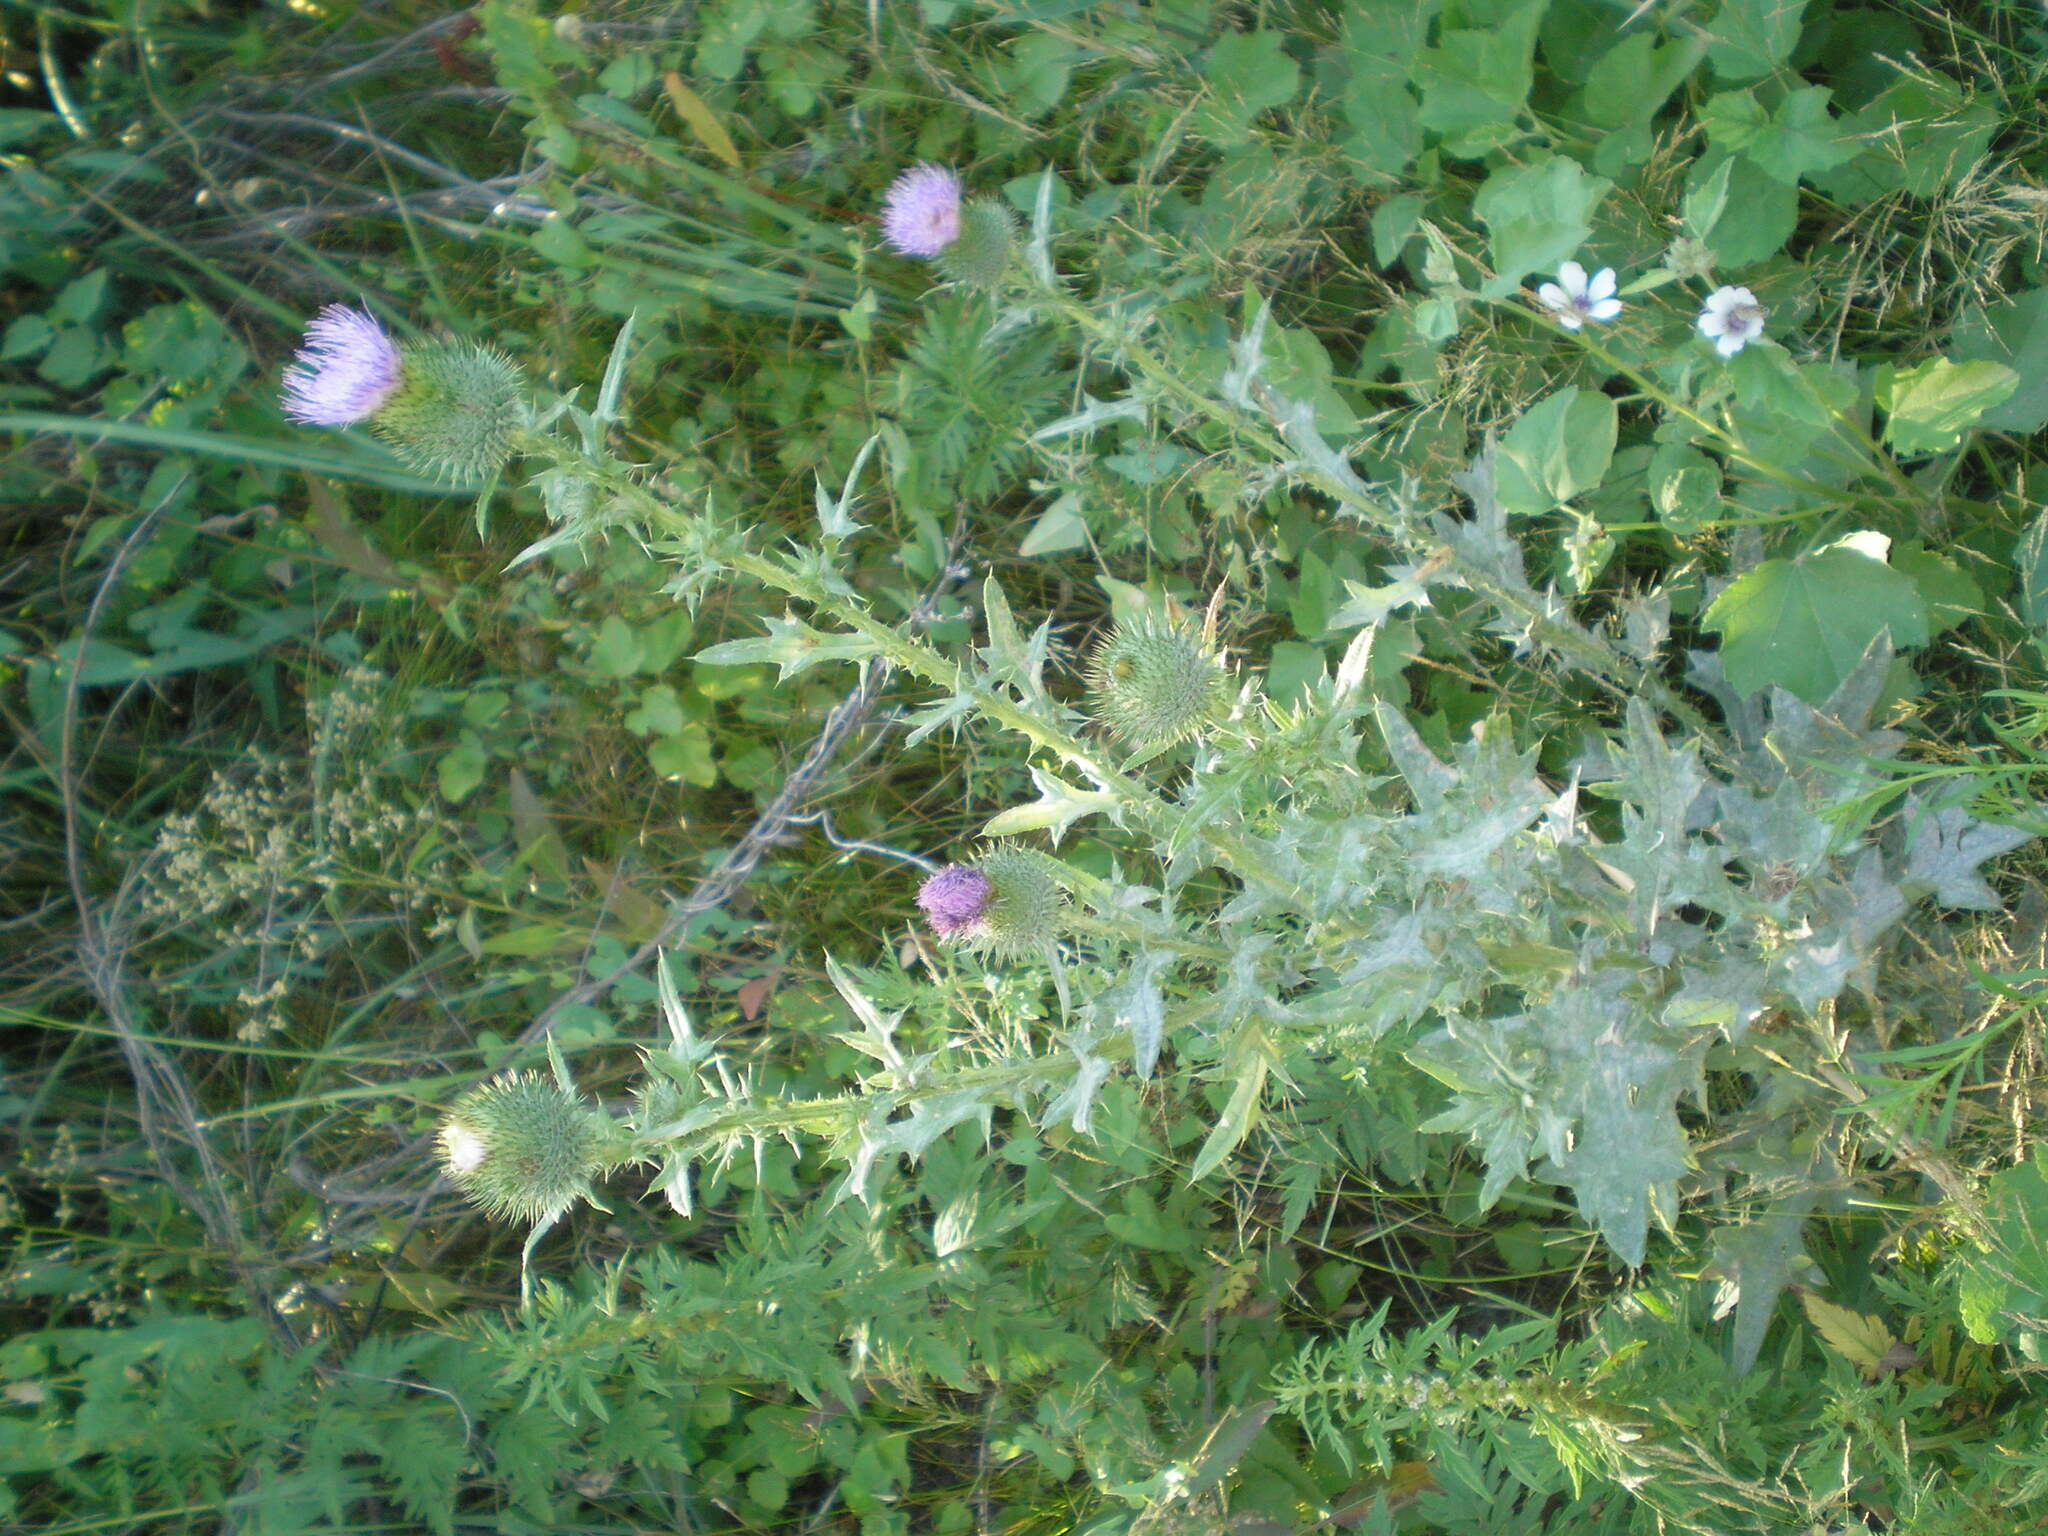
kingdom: Plantae
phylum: Tracheophyta
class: Magnoliopsida
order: Asterales
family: Asteraceae
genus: Cirsium
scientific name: Cirsium vulgare
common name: Bull thistle
